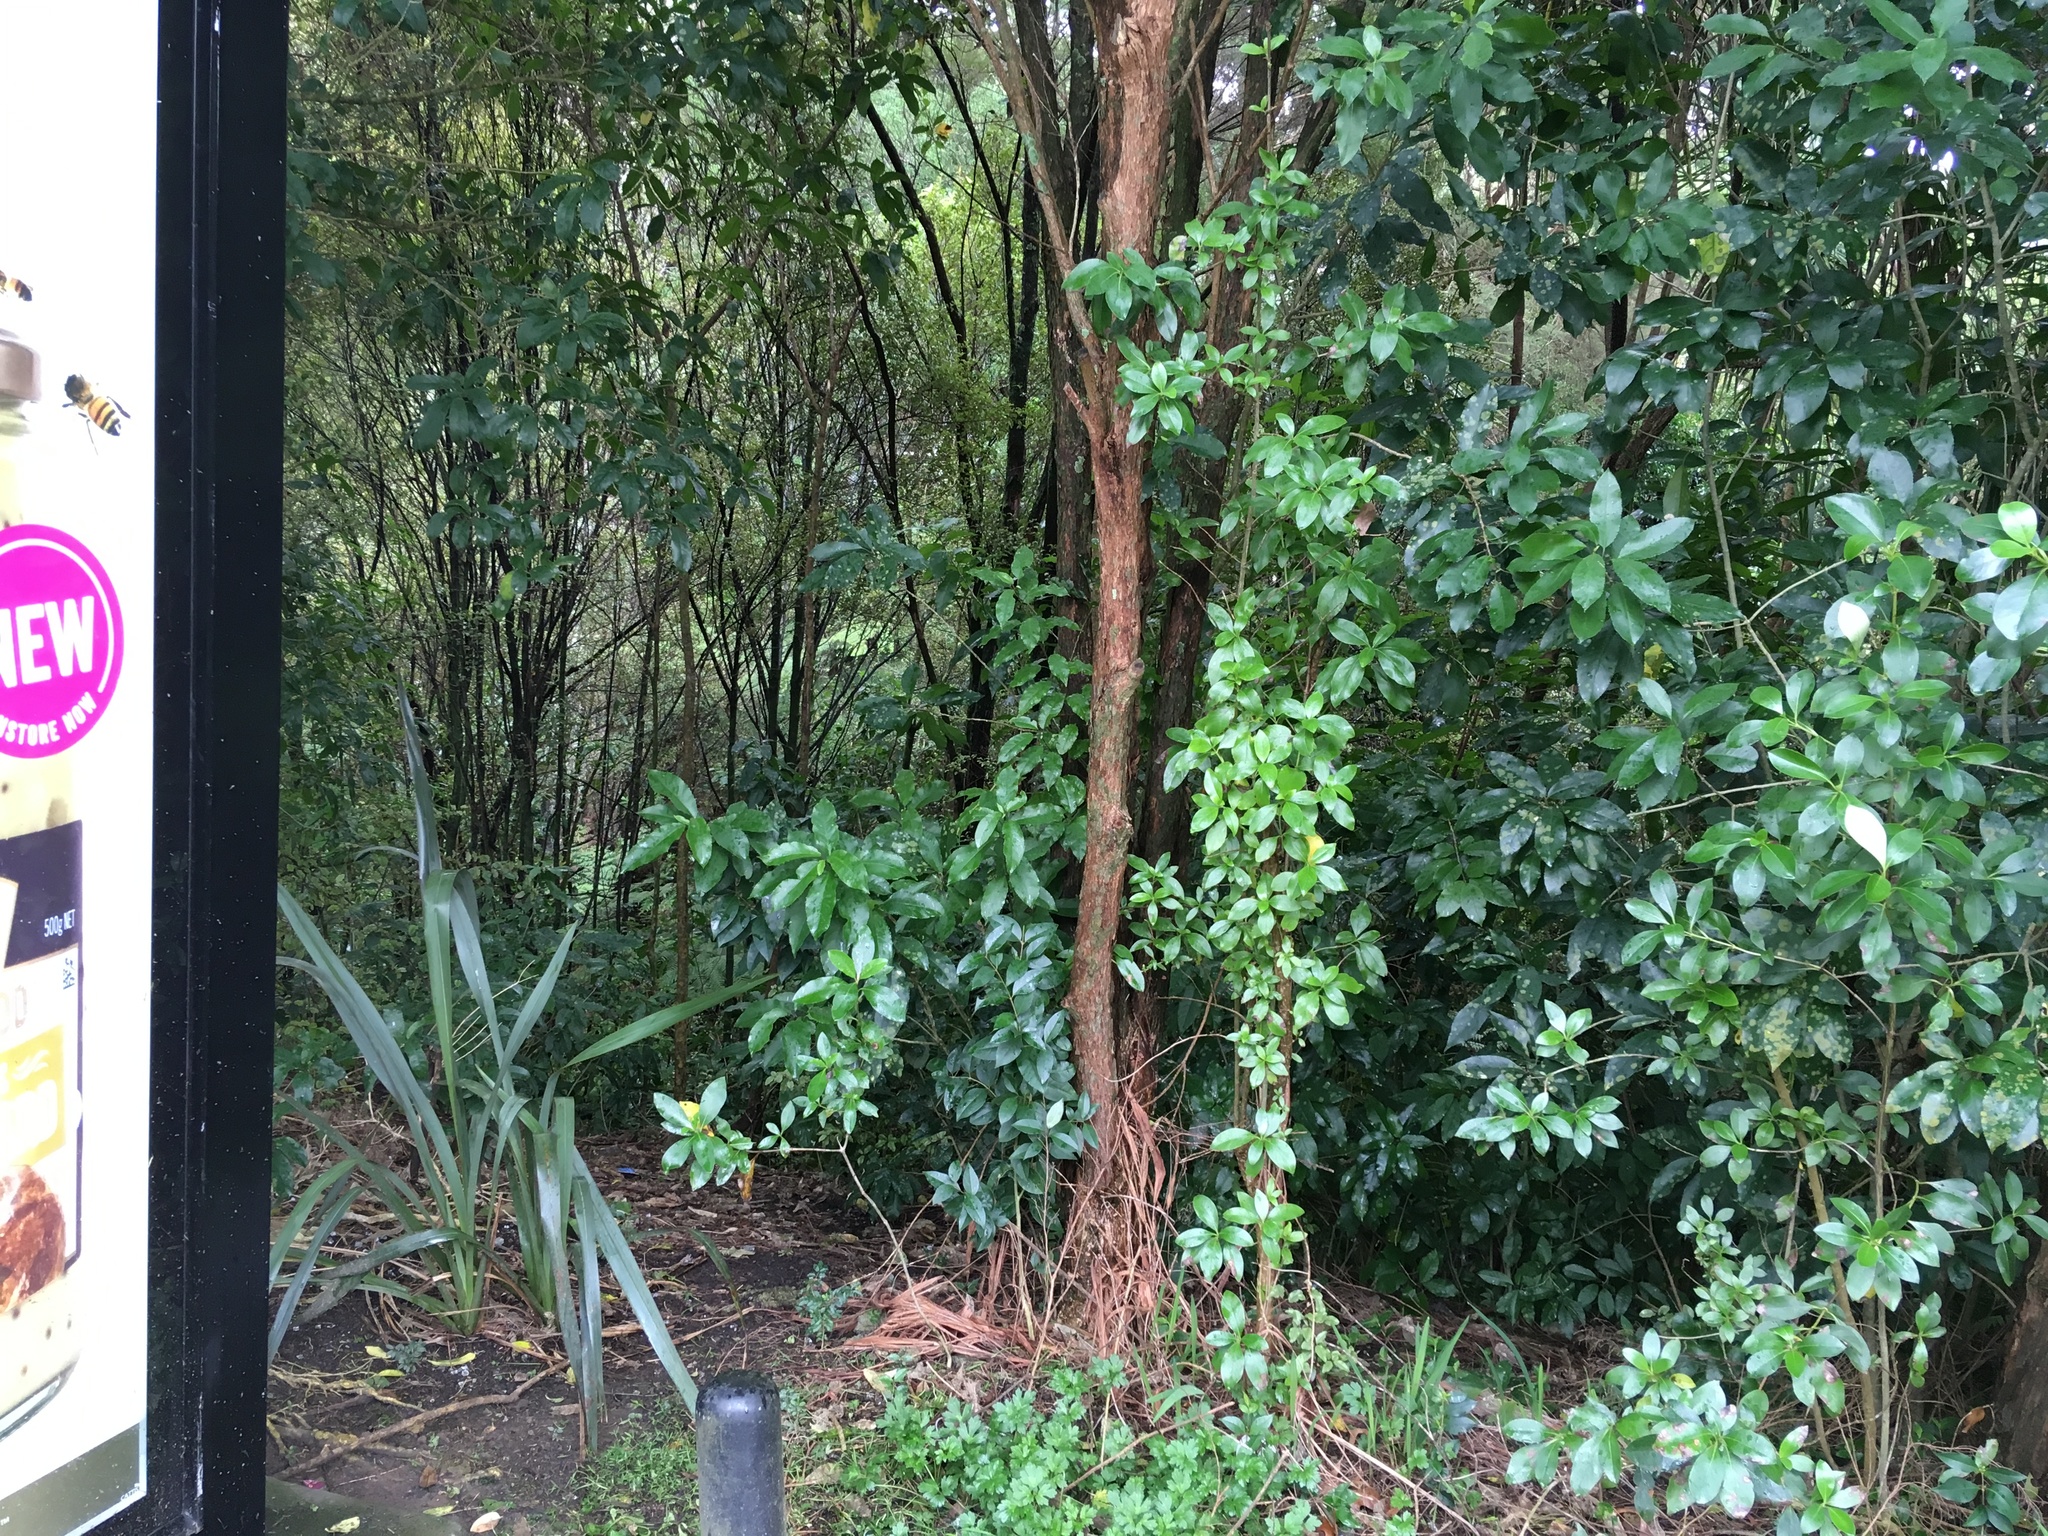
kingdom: Plantae
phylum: Tracheophyta
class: Magnoliopsida
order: Gentianales
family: Rubiaceae
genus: Coprosma
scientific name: Coprosma robusta
